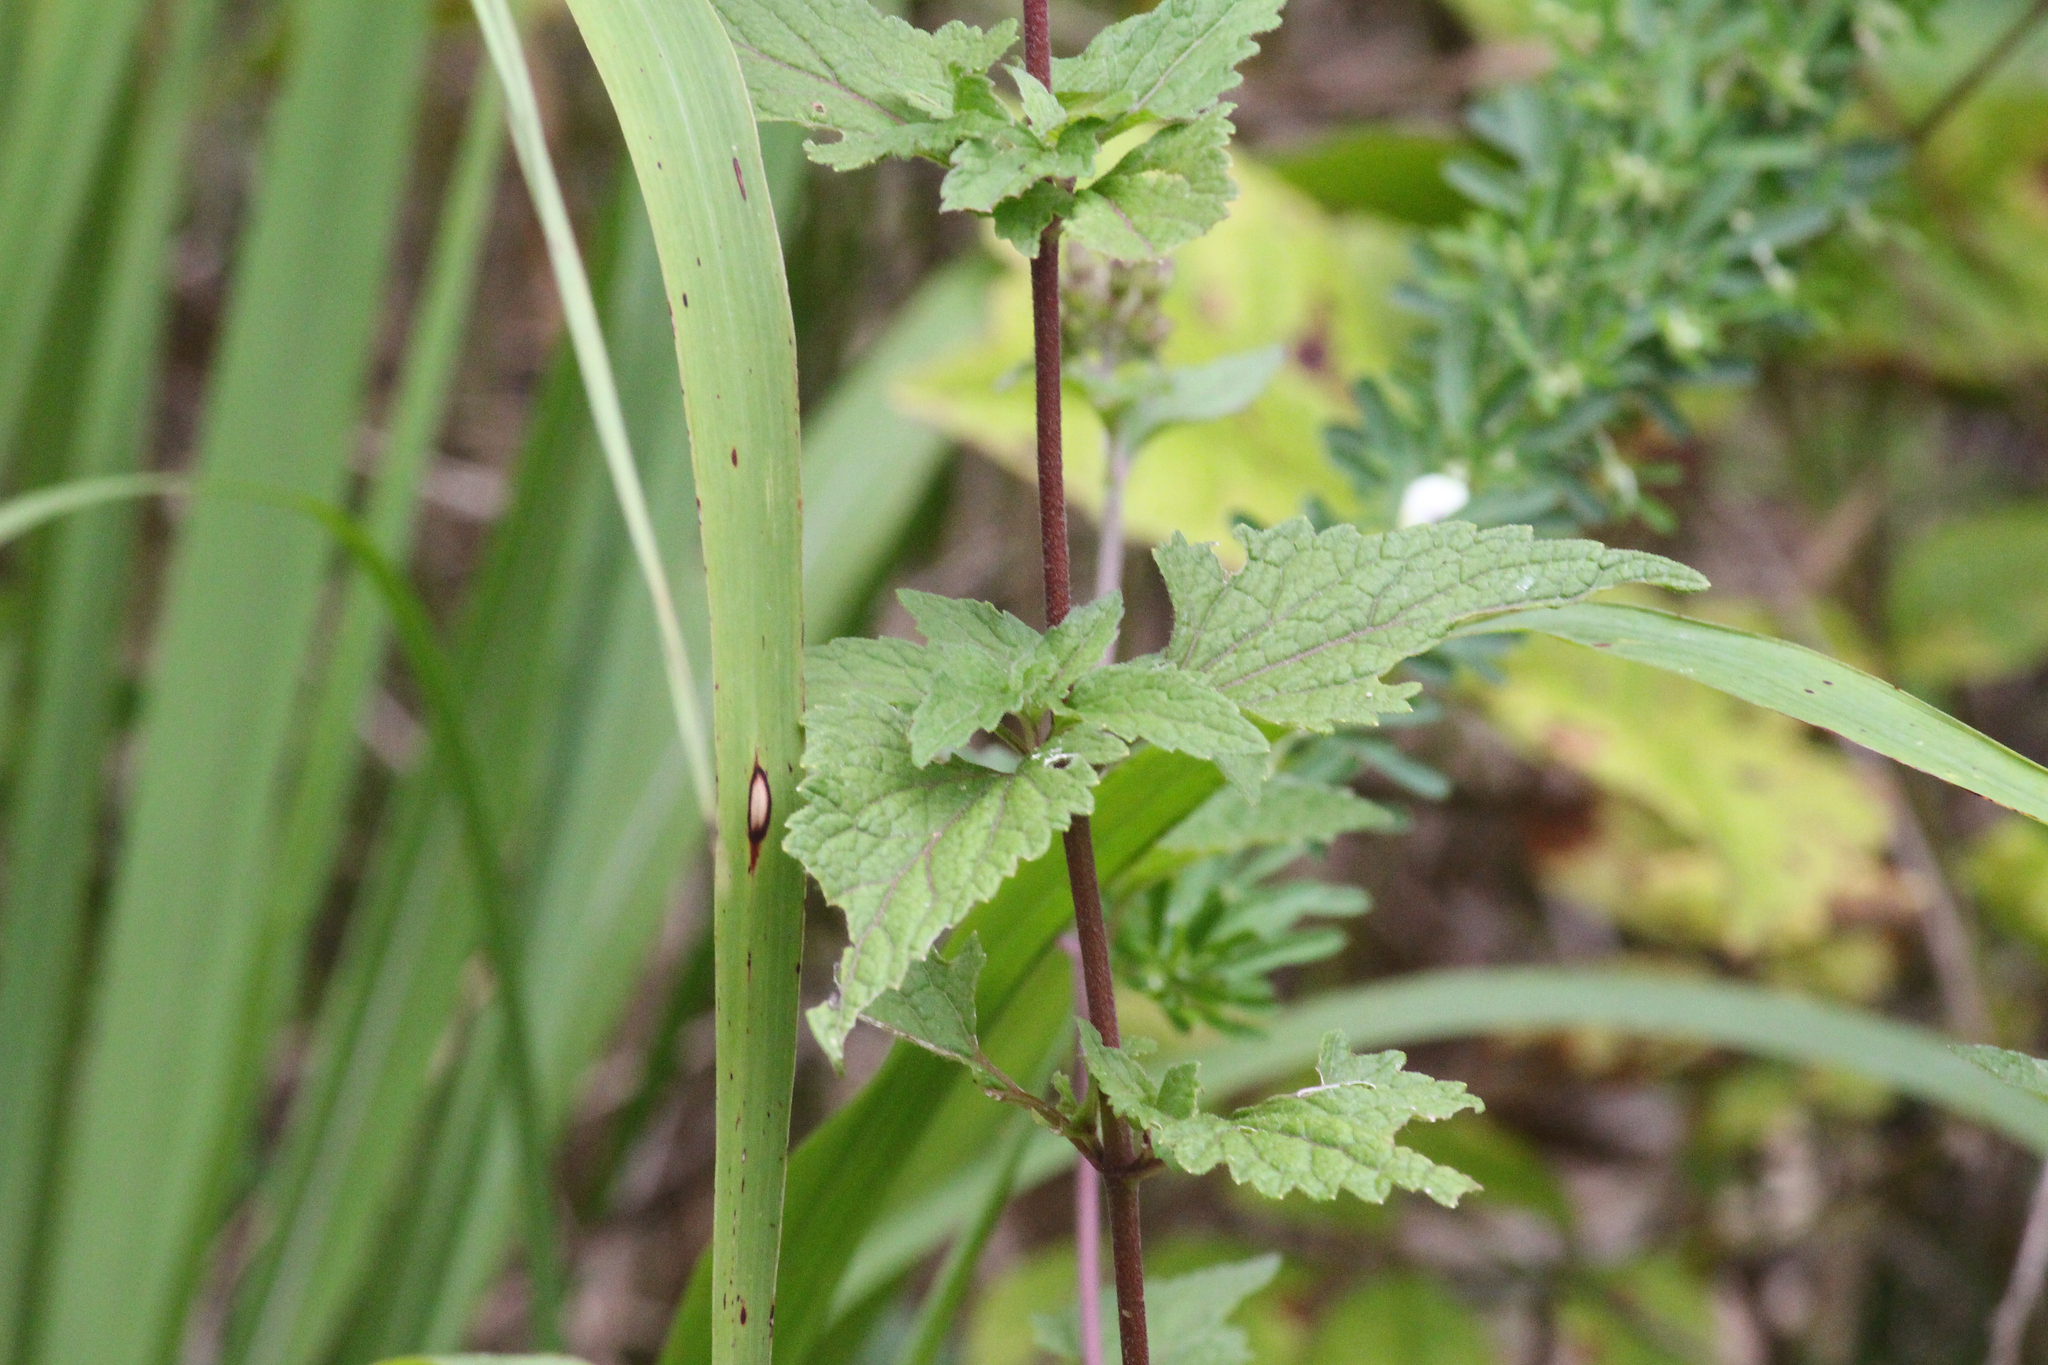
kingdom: Plantae
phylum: Tracheophyta
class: Magnoliopsida
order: Asterales
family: Asteraceae
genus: Conoclinium
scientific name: Conoclinium coelestinum
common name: Blue mistflower
